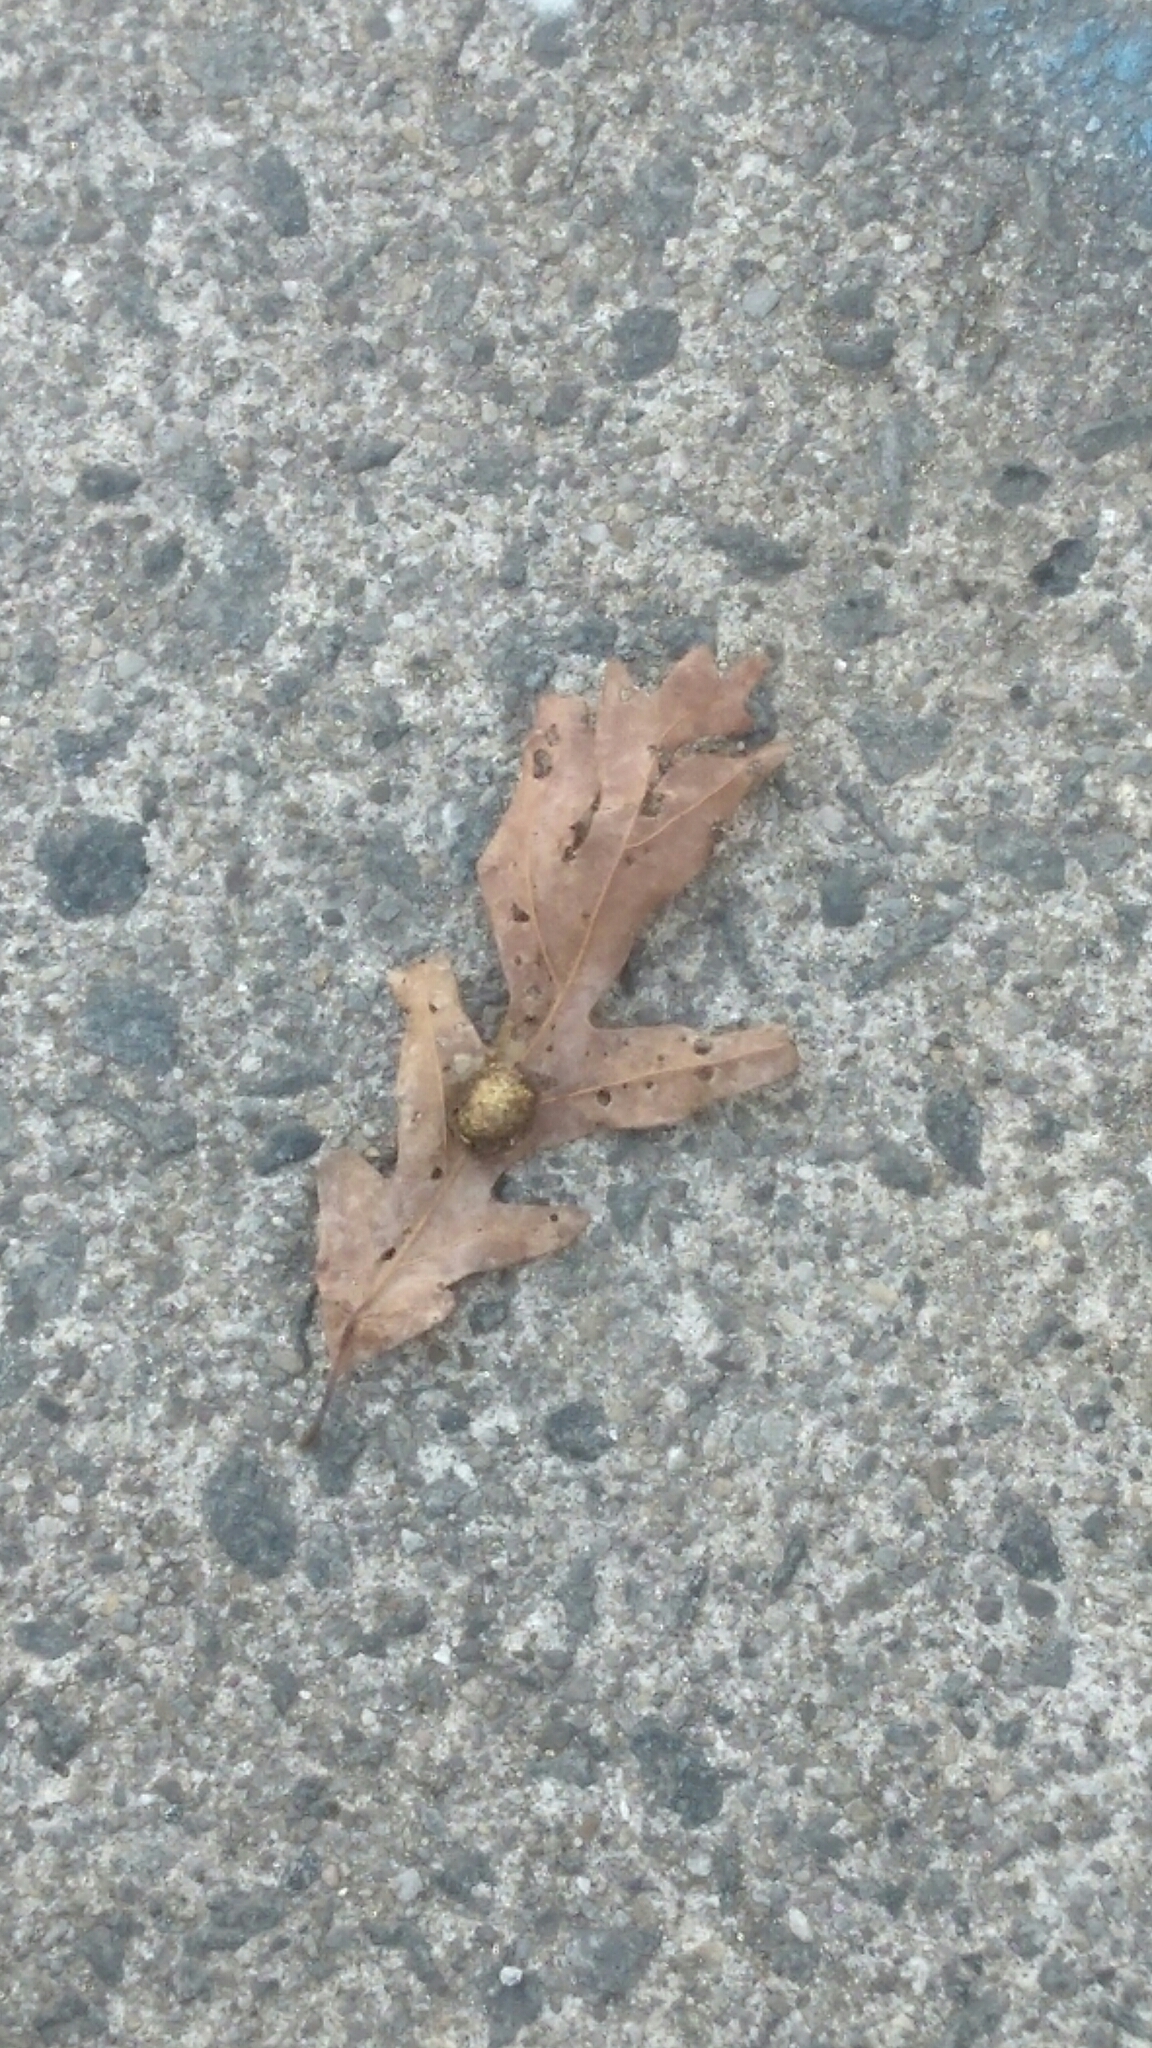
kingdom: Animalia
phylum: Arthropoda
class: Insecta
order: Hymenoptera
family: Cynipidae
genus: Acraspis
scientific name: Acraspis erinacei
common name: Hedgehog gall wasp
